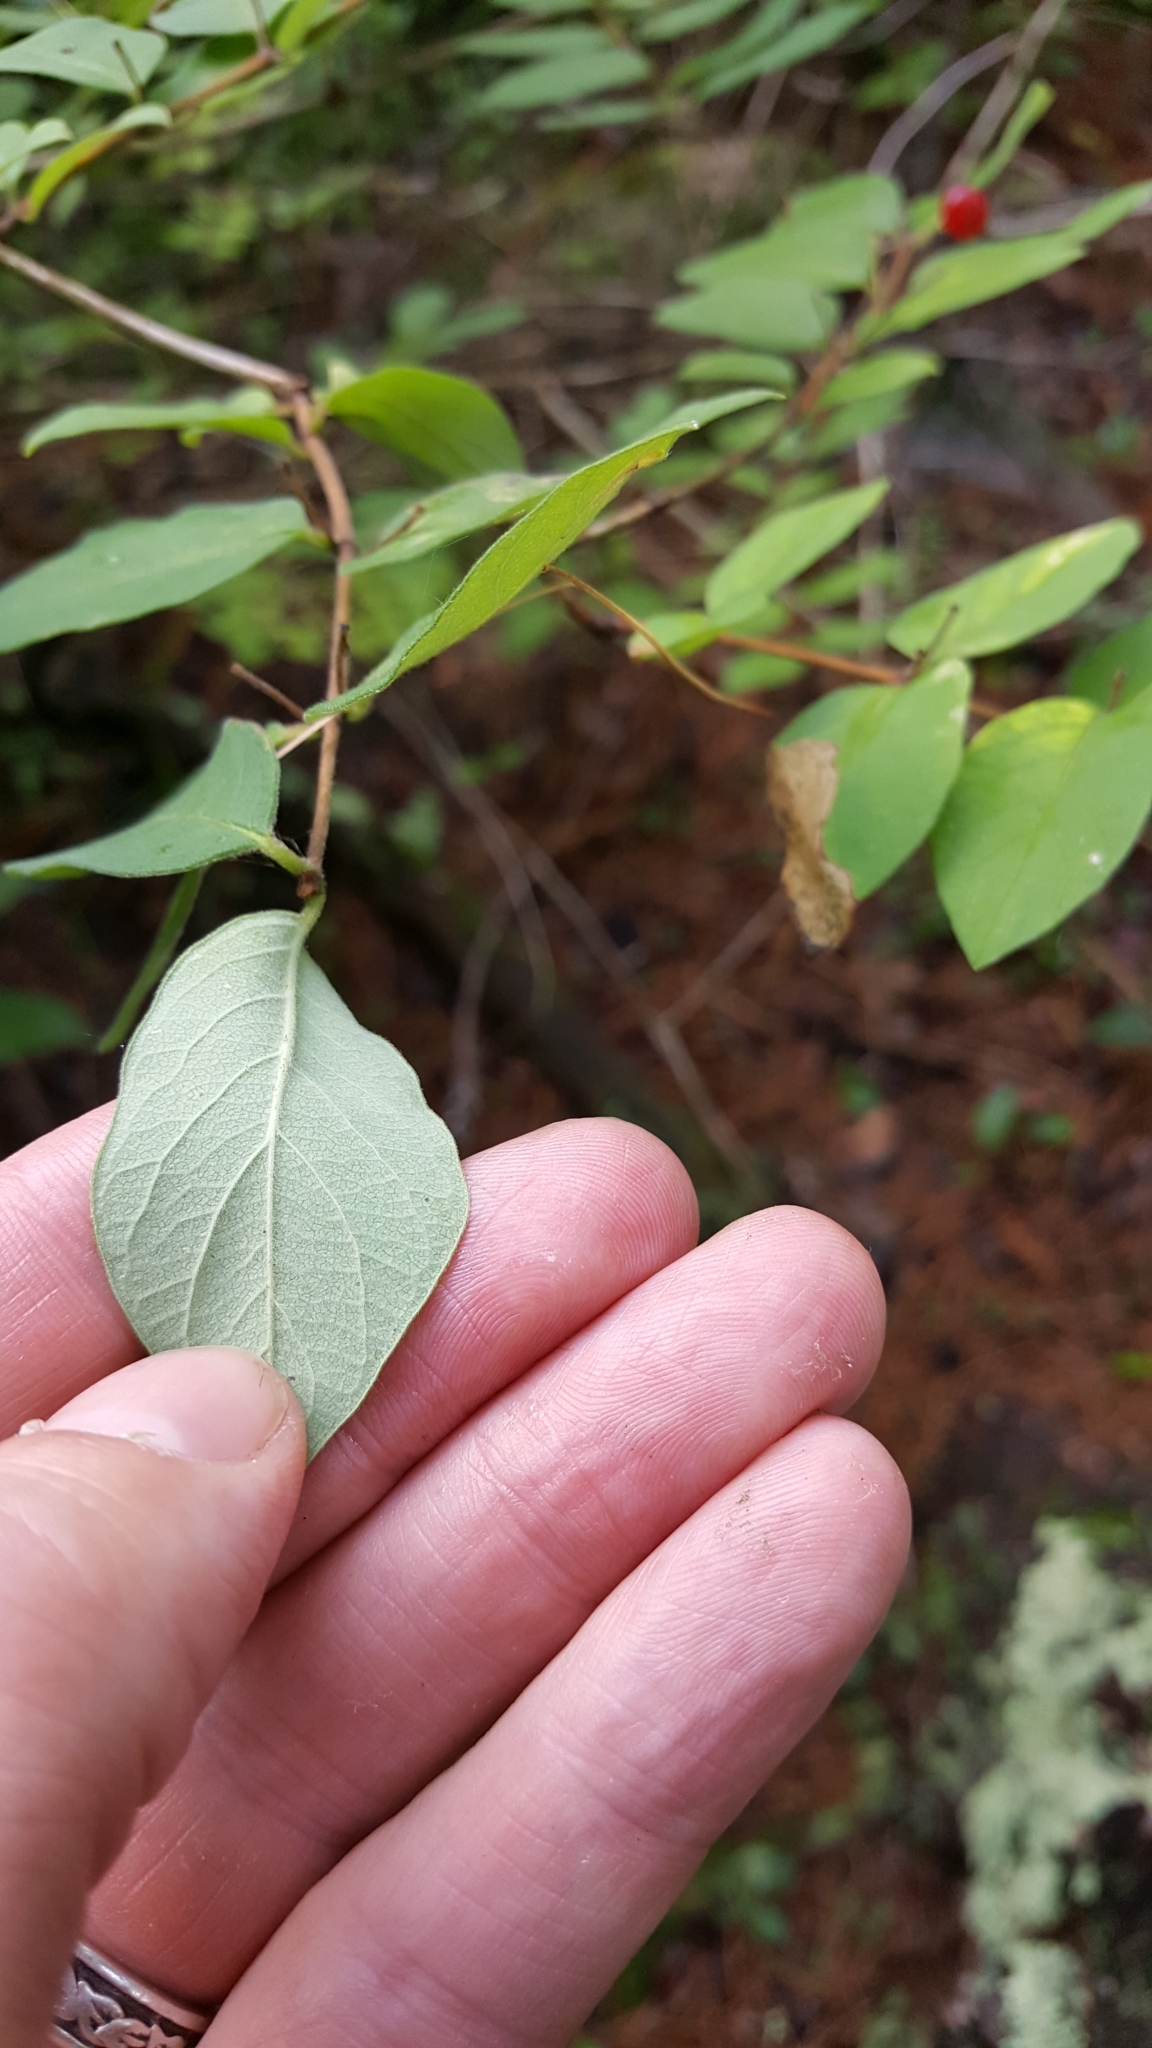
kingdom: Plantae
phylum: Tracheophyta
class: Magnoliopsida
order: Dipsacales
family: Caprifoliaceae
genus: Lonicera
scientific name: Lonicera morrowii
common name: Morrow's honeysuckle
